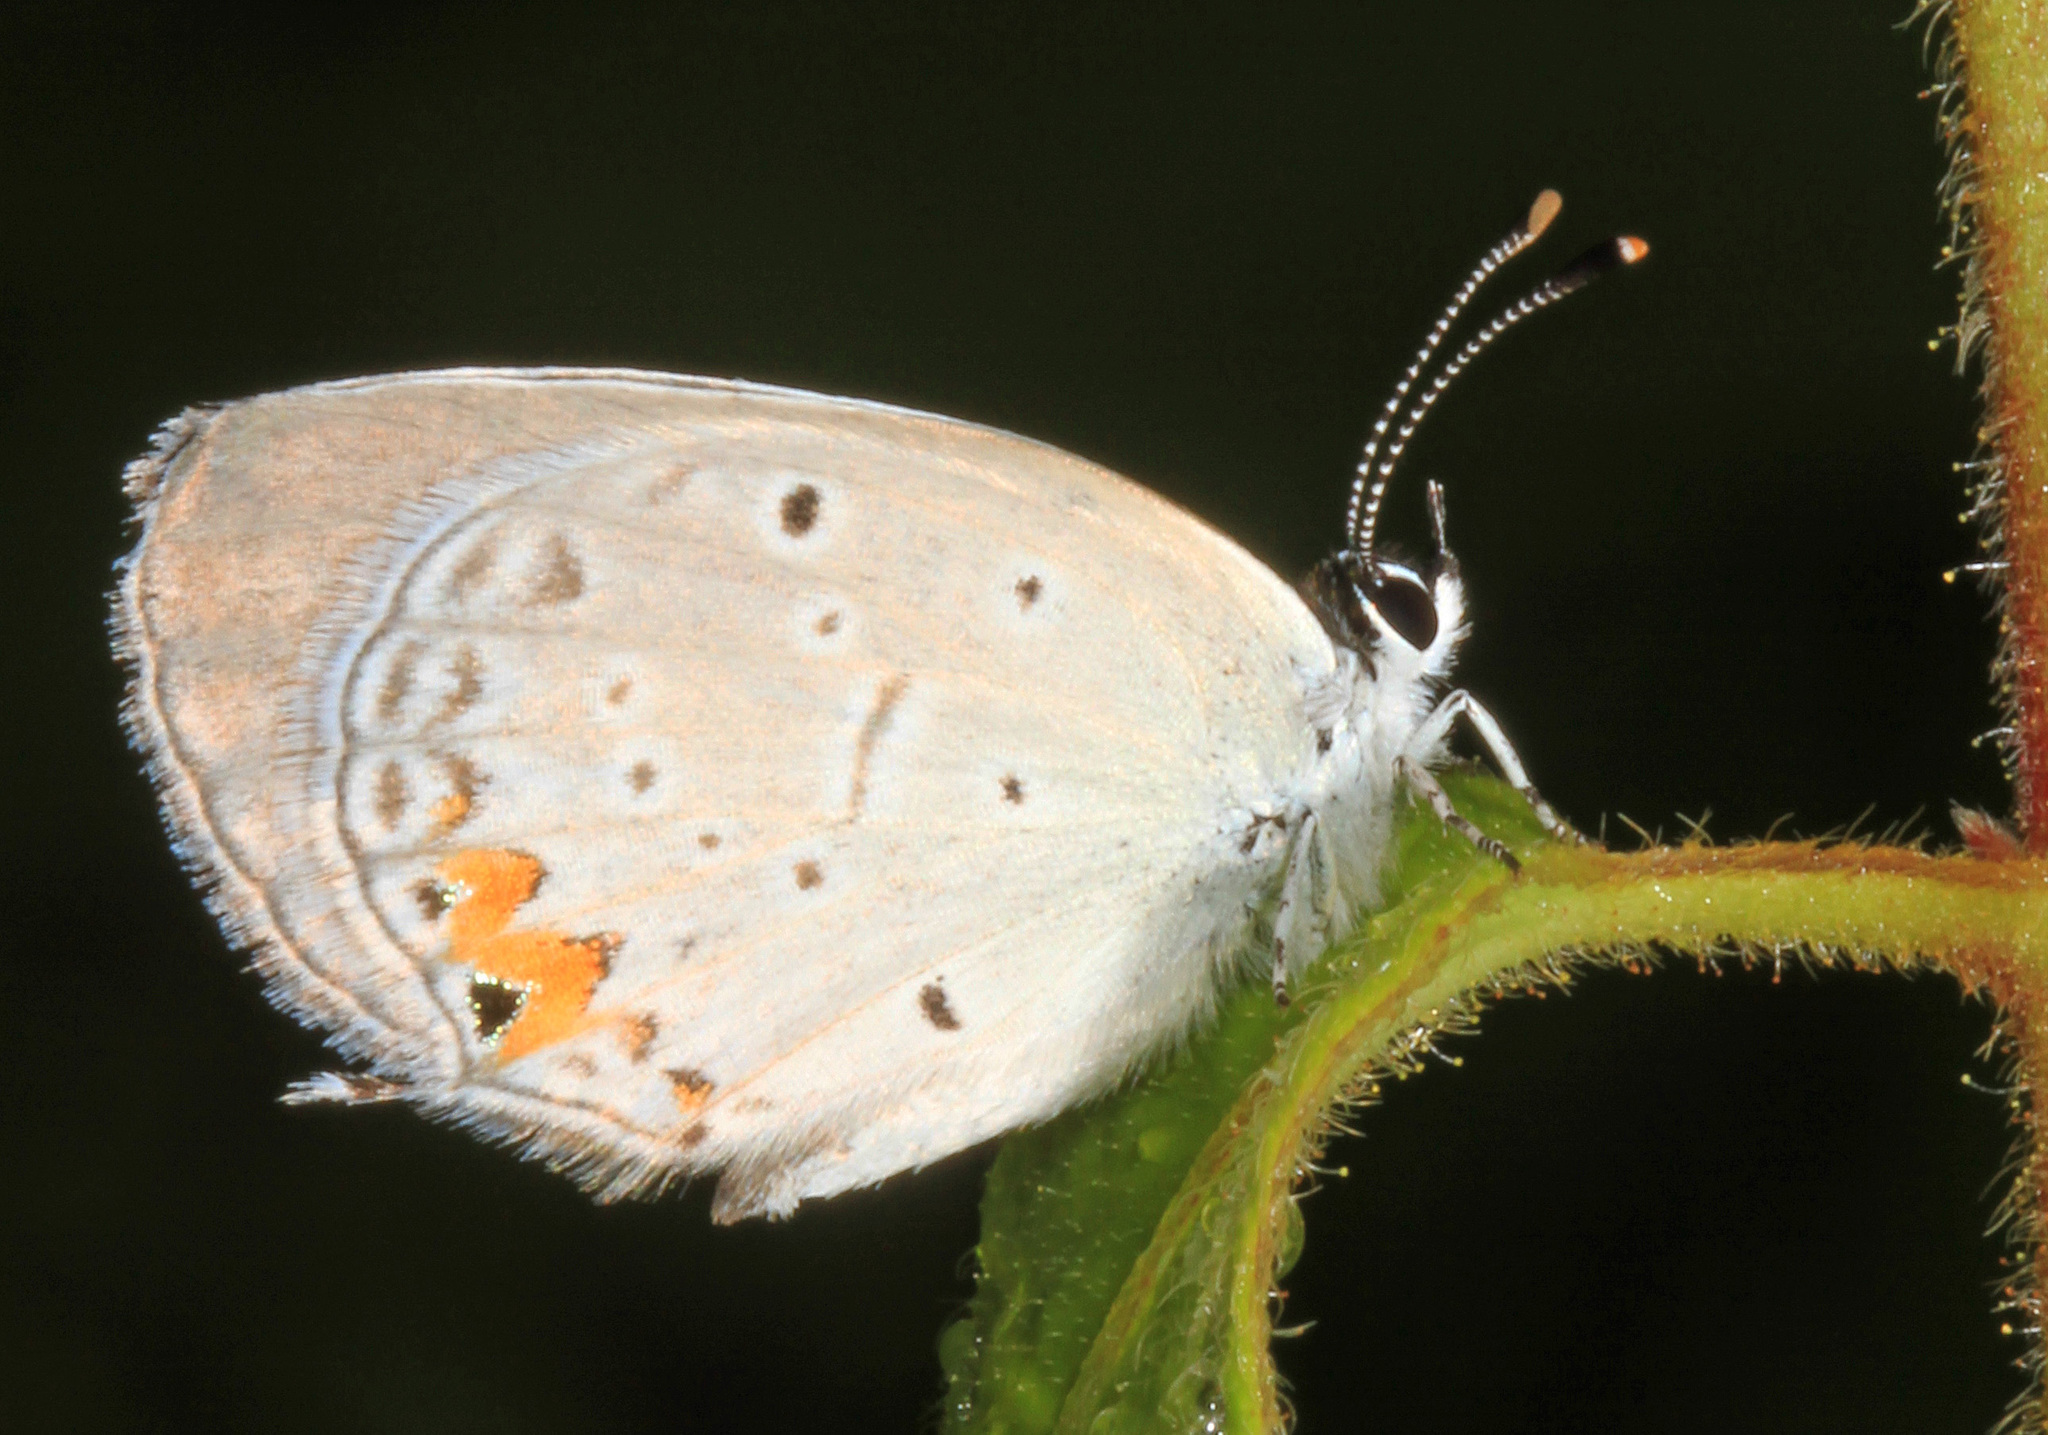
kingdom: Animalia
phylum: Arthropoda
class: Insecta
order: Lepidoptera
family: Lycaenidae
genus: Elkalyce
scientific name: Elkalyce comyntas
